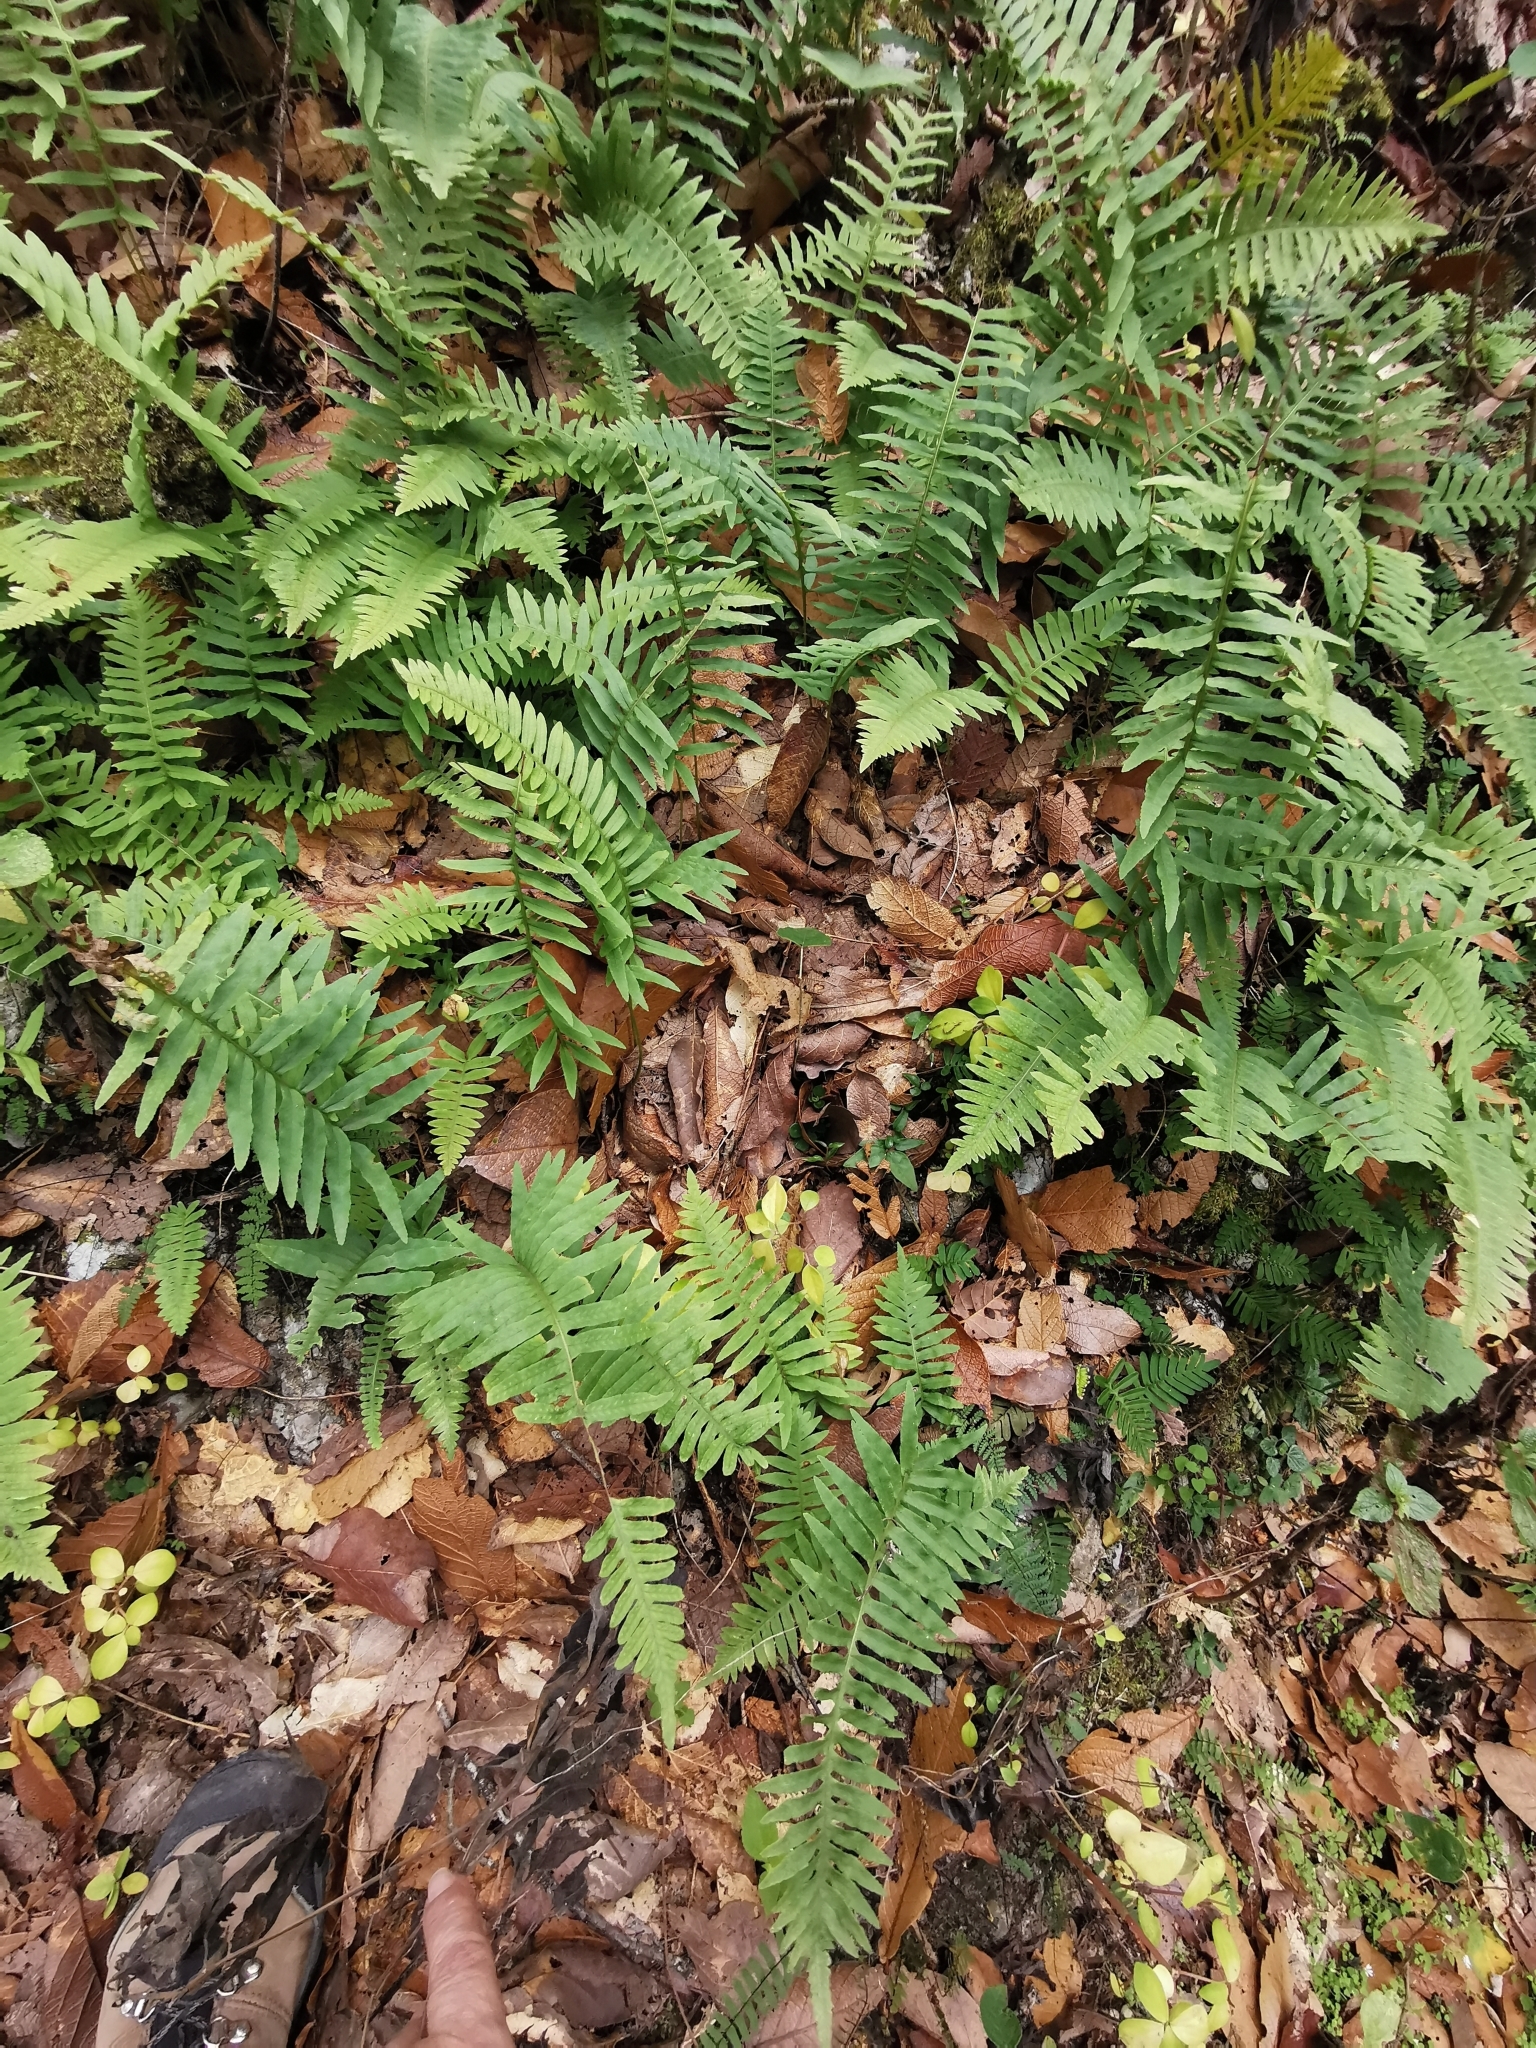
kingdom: Plantae
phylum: Tracheophyta
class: Polypodiopsida
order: Polypodiales
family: Polypodiaceae
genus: Polypodium
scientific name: Polypodium plesiosorum
